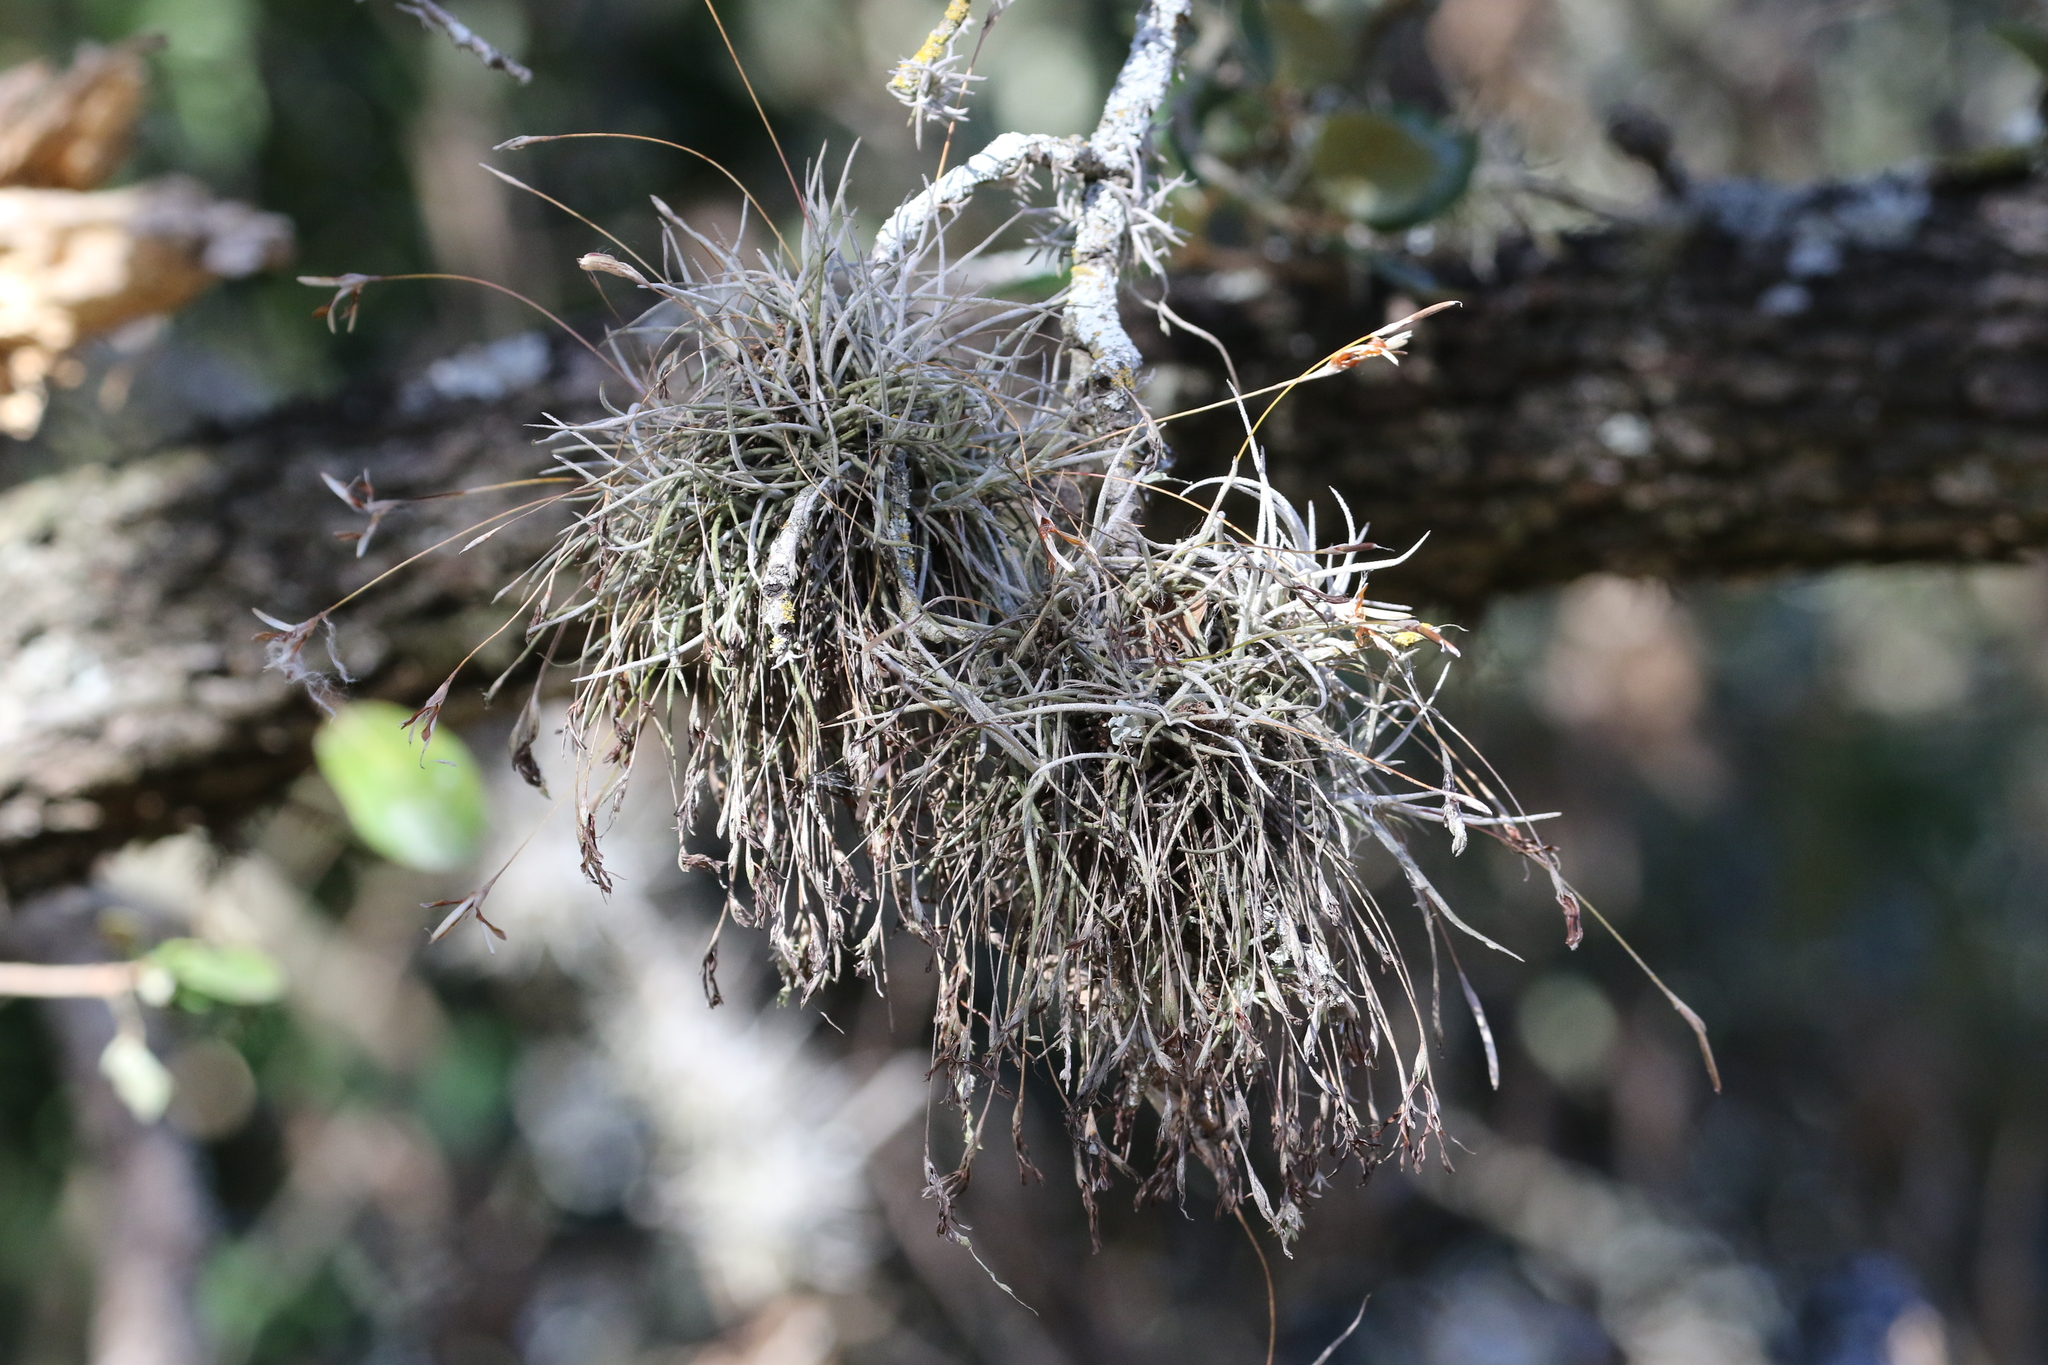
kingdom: Plantae
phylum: Tracheophyta
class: Liliopsida
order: Poales
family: Bromeliaceae
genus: Tillandsia
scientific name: Tillandsia recurvata
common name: Small ballmoss
